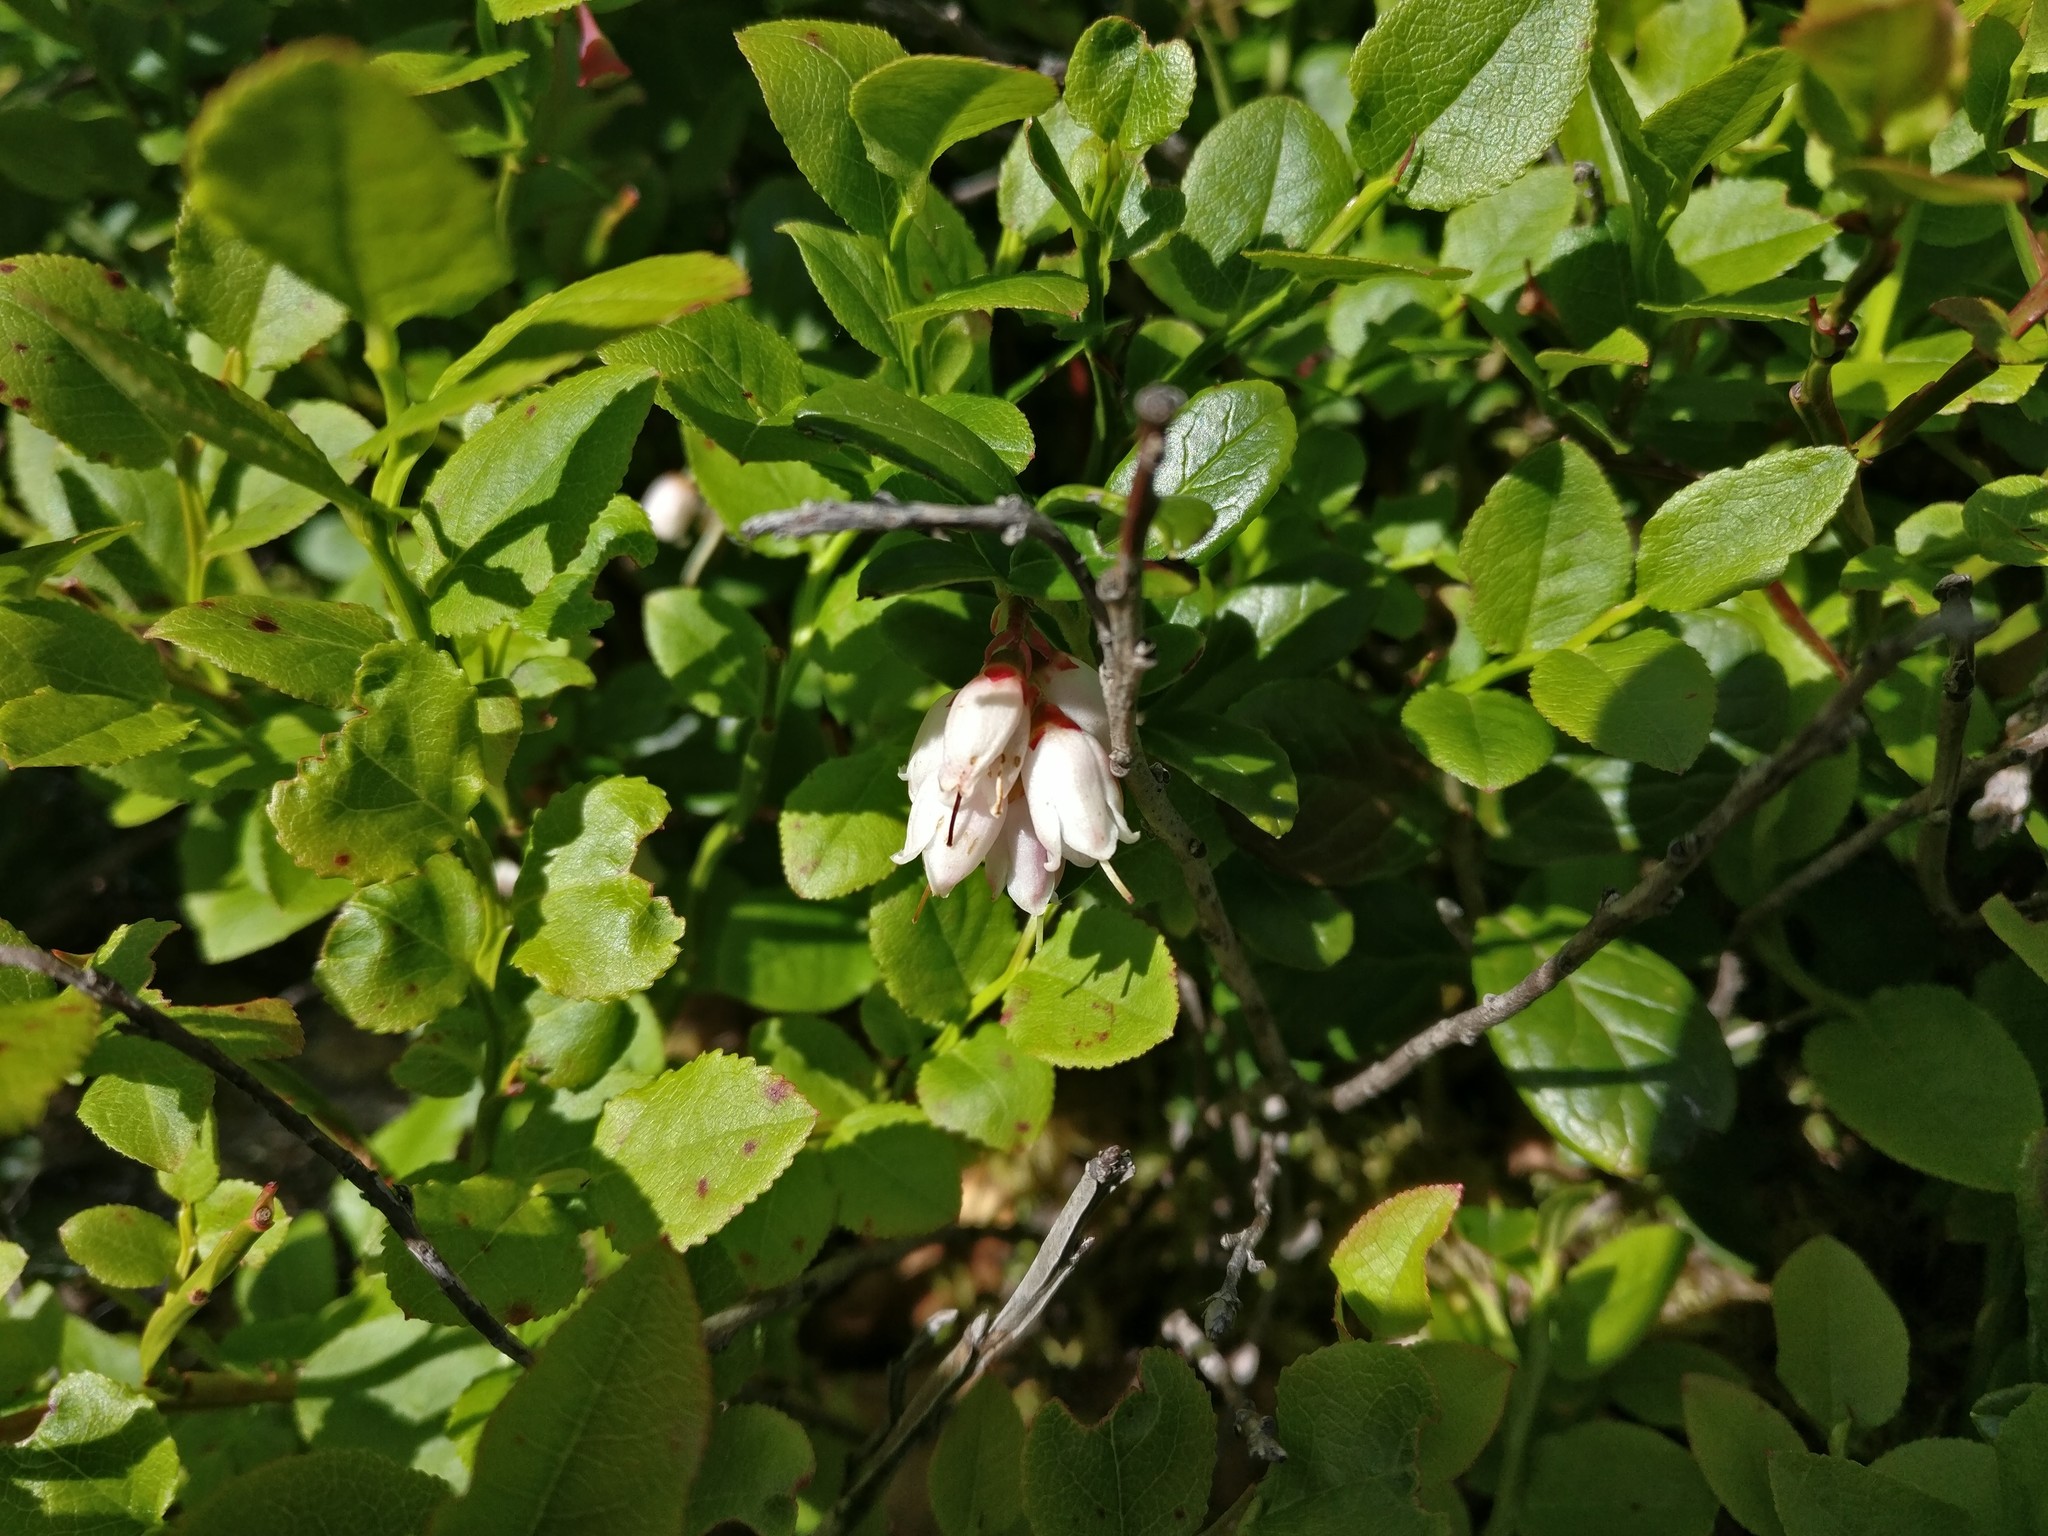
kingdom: Plantae
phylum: Tracheophyta
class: Magnoliopsida
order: Ericales
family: Ericaceae
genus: Vaccinium
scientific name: Vaccinium vitis-idaea
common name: Cowberry
